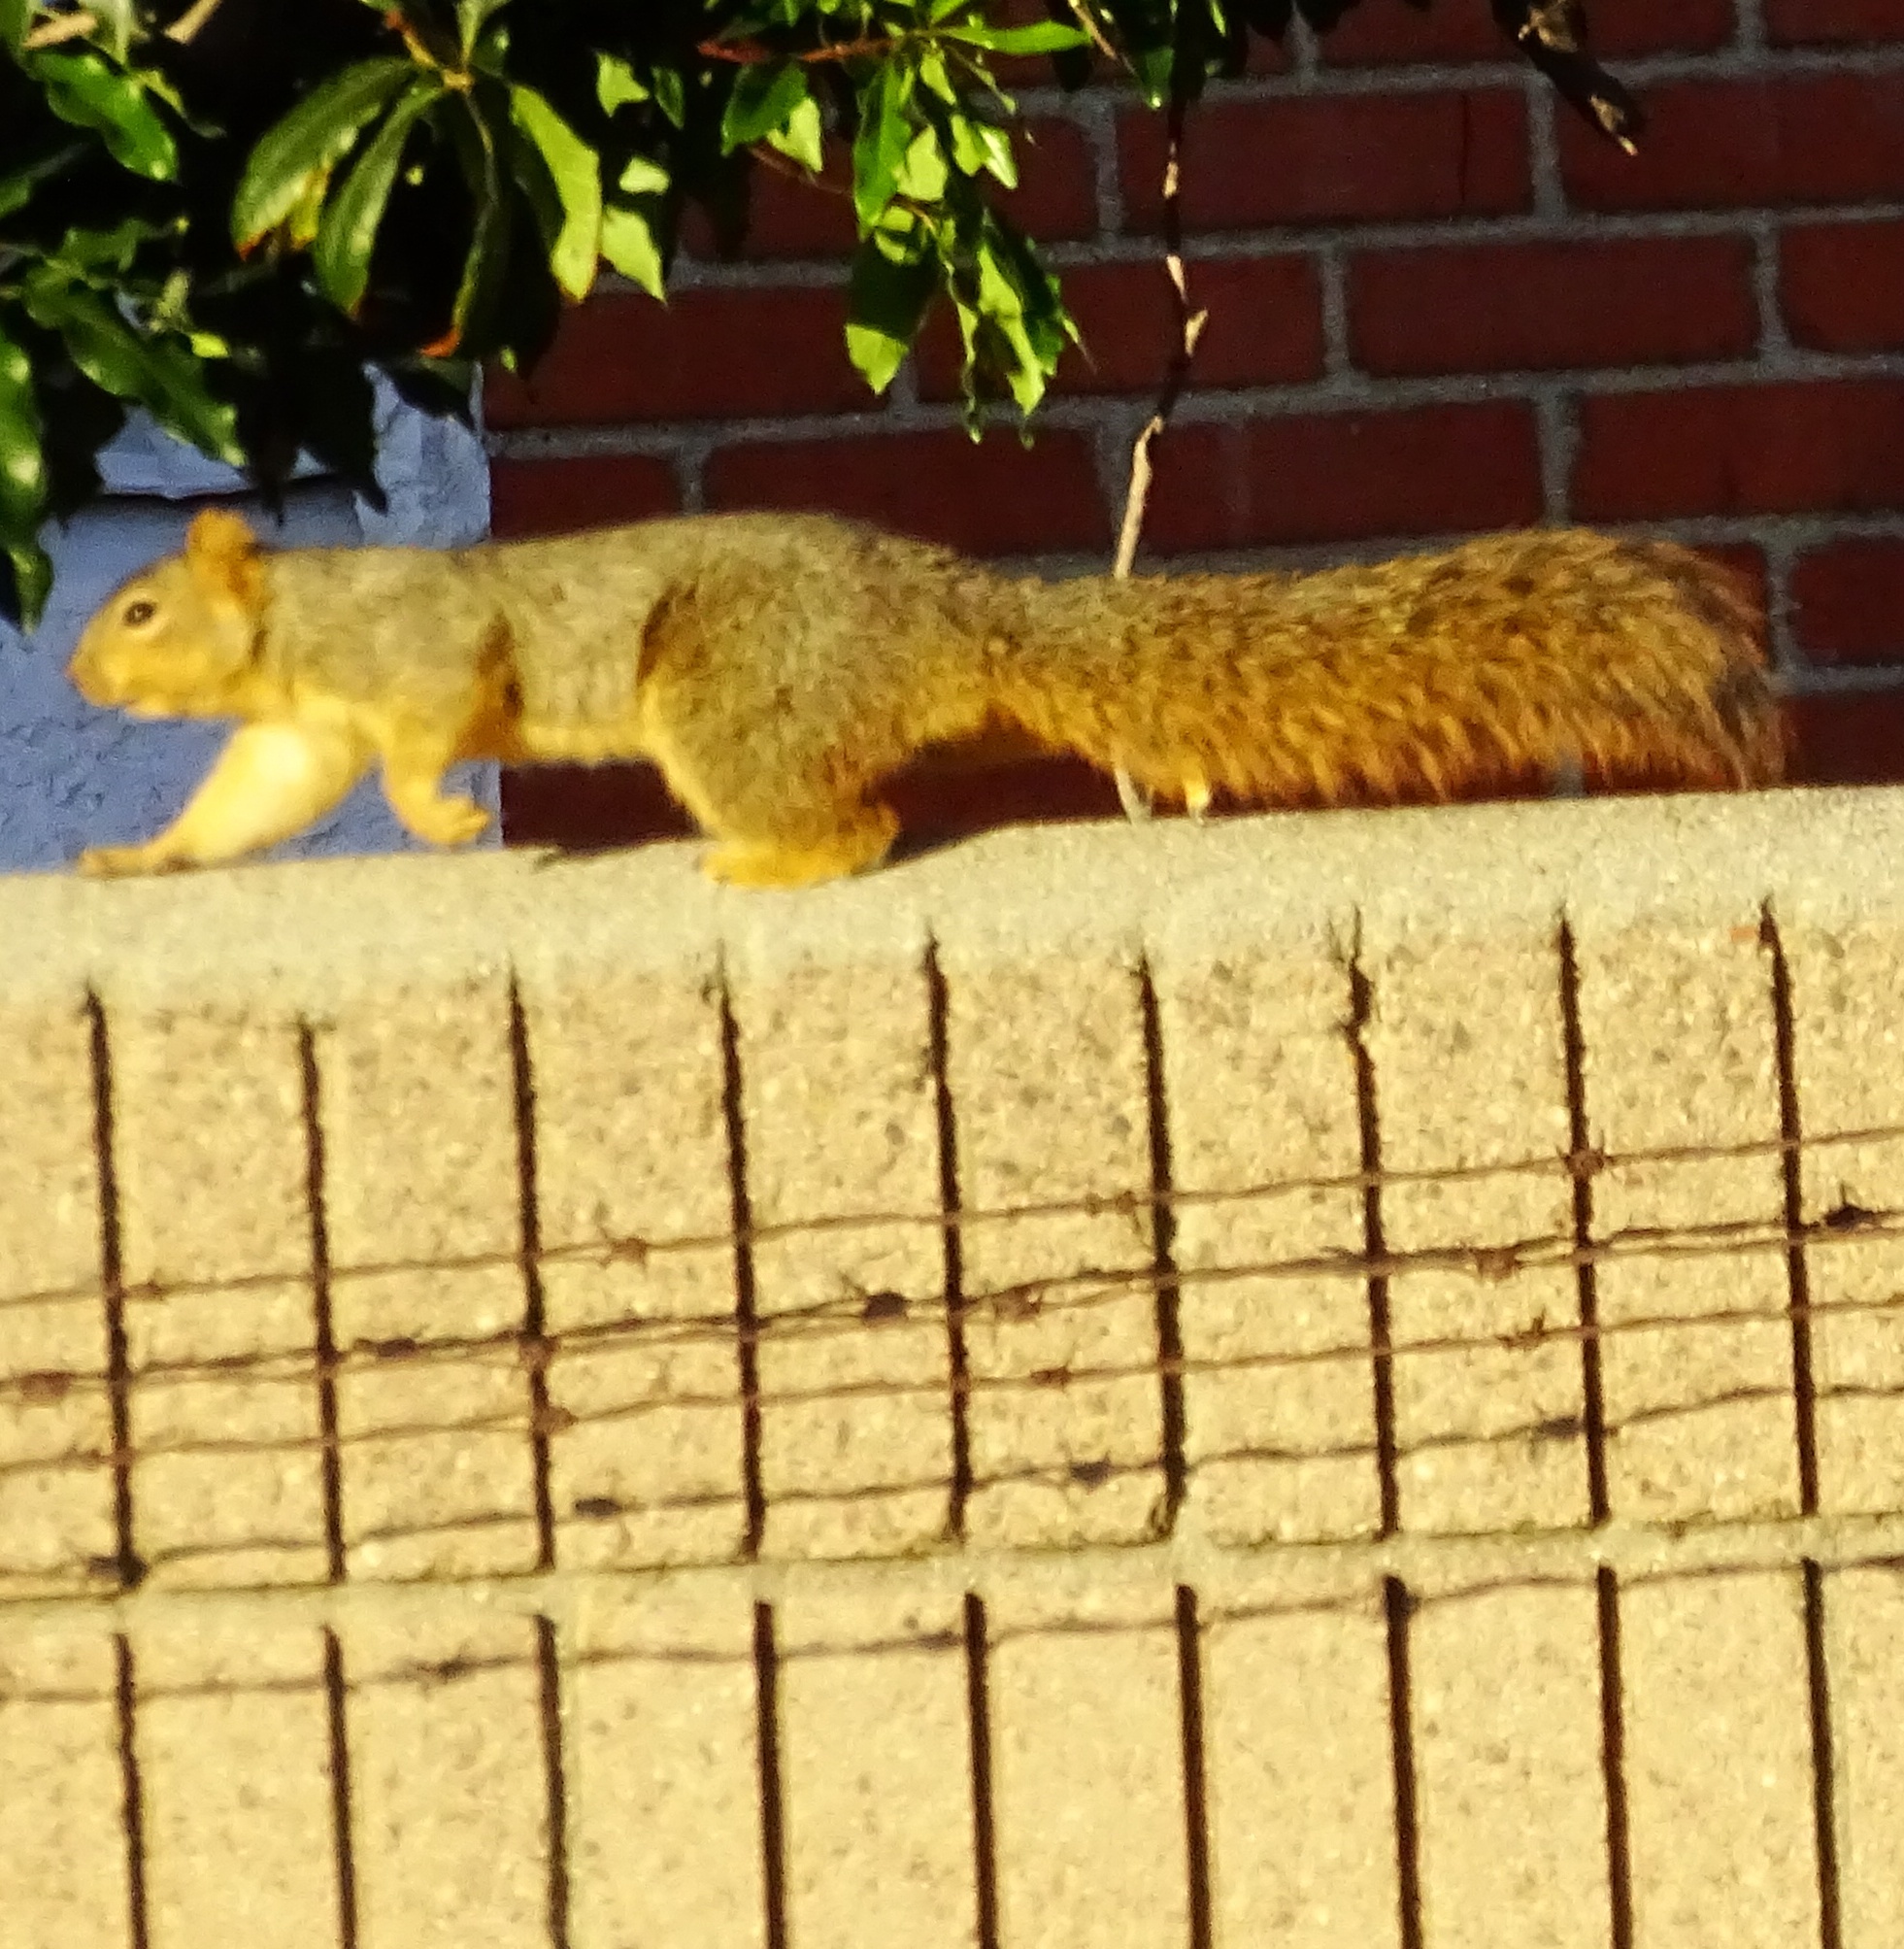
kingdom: Animalia
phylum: Chordata
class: Mammalia
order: Rodentia
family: Sciuridae
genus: Sciurus
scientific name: Sciurus niger
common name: Fox squirrel
